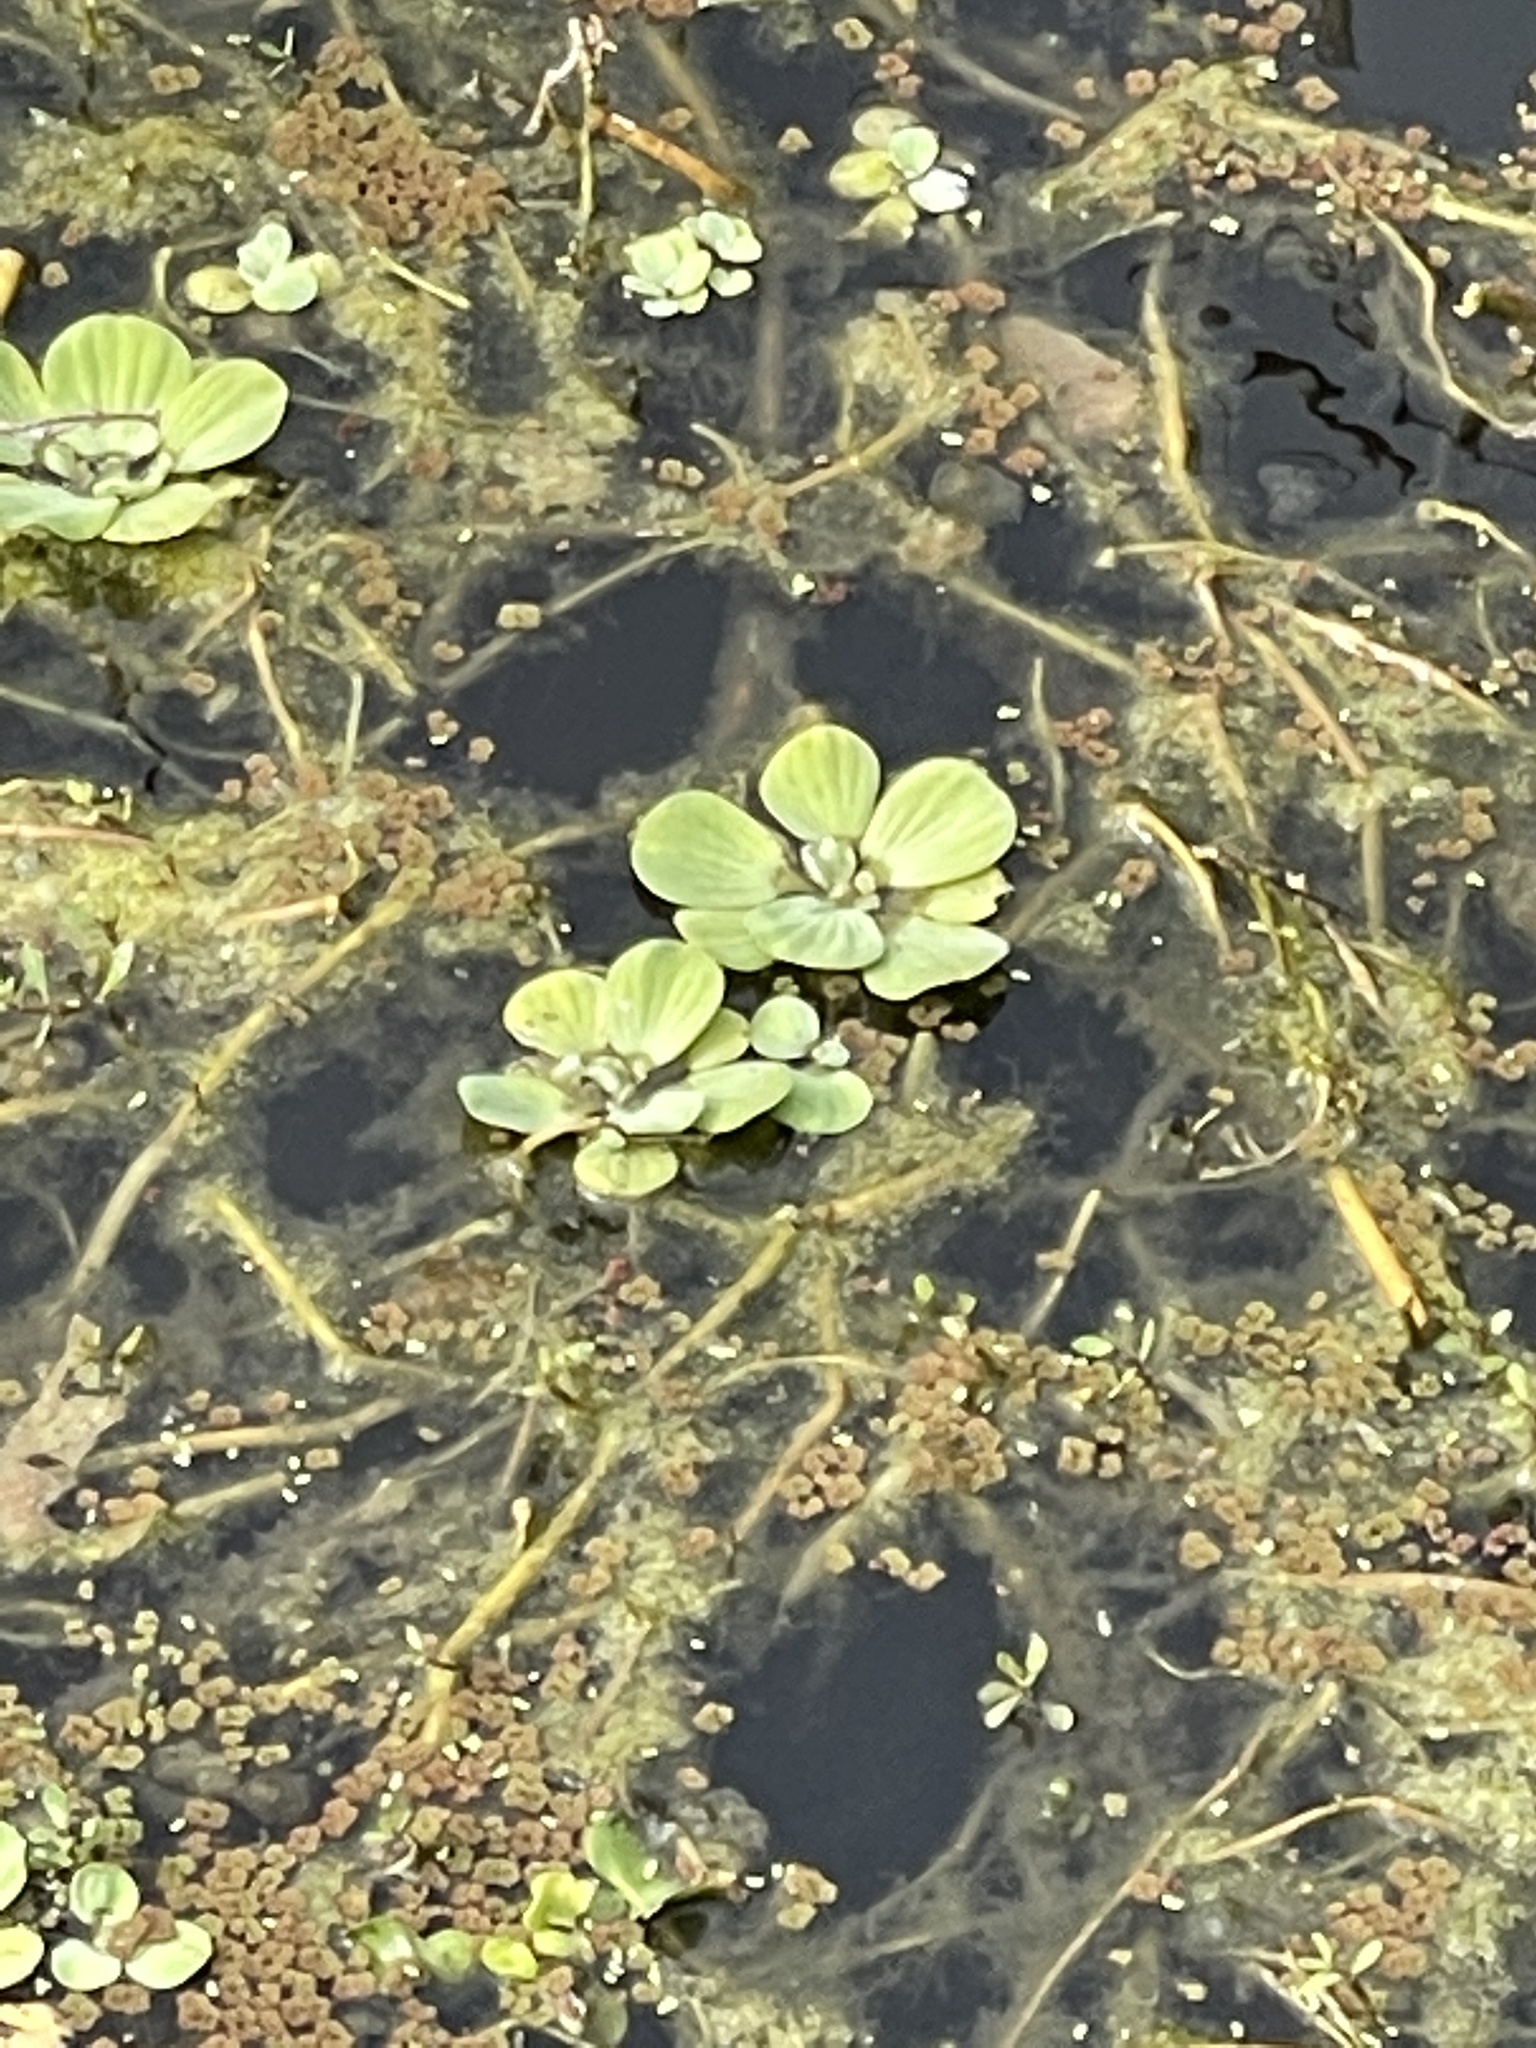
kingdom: Plantae
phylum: Tracheophyta
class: Liliopsida
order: Alismatales
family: Araceae
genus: Pistia
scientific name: Pistia stratiotes
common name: Water lettuce
